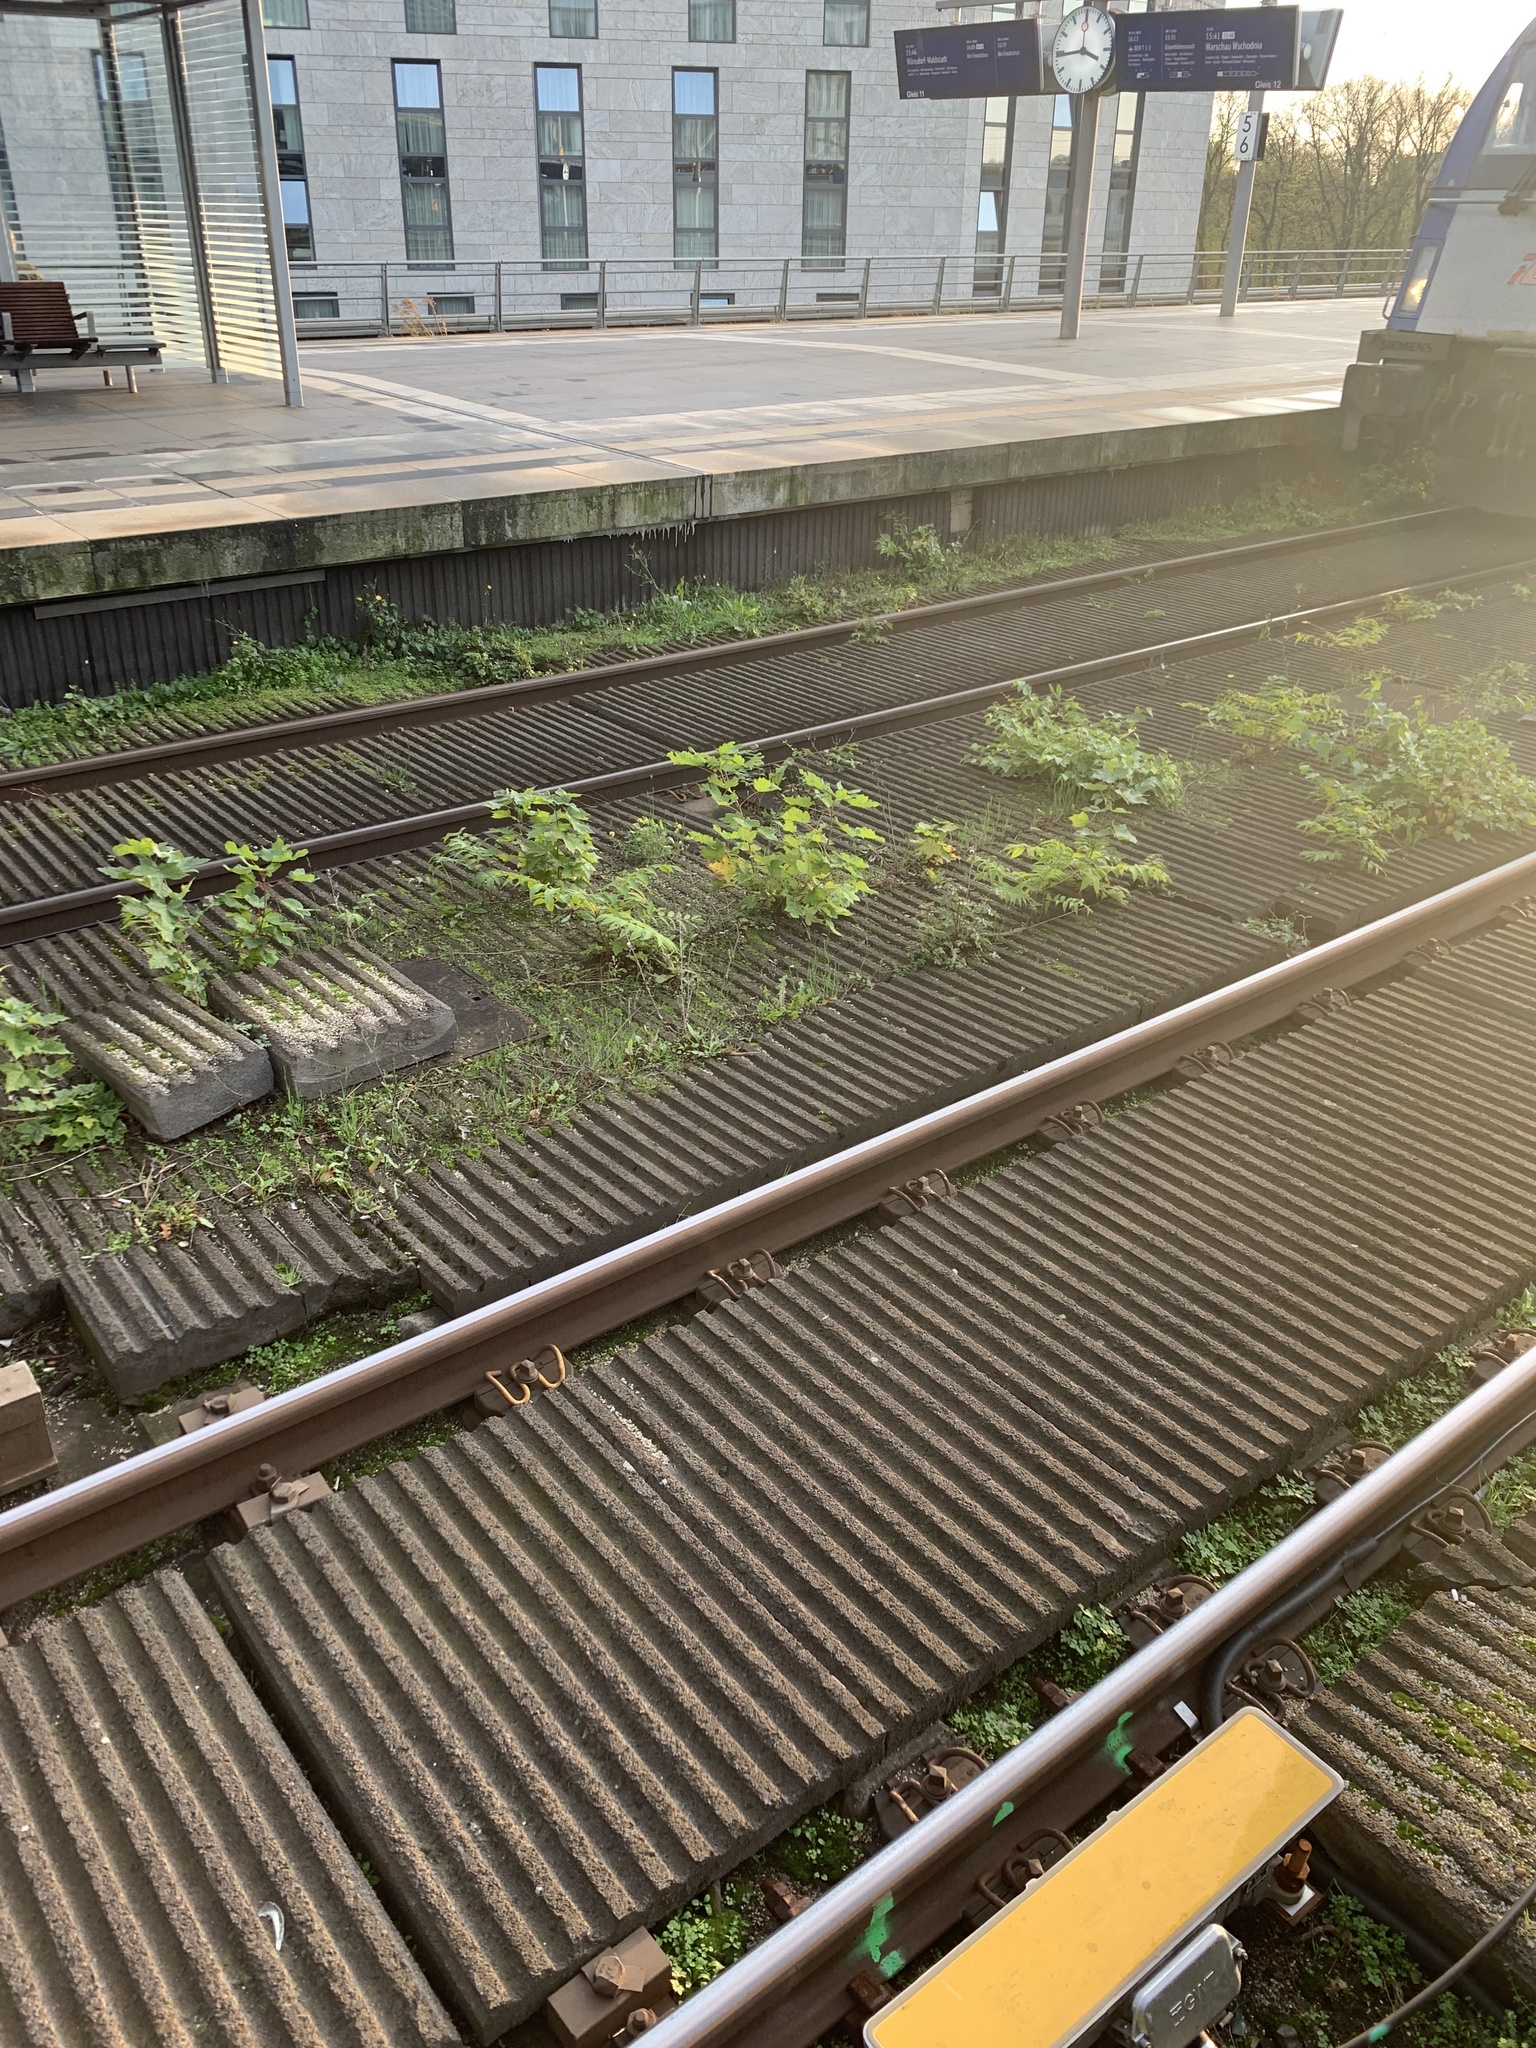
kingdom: Plantae
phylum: Tracheophyta
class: Magnoliopsida
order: Sapindales
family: Simaroubaceae
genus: Ailanthus
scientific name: Ailanthus altissima
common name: Tree-of-heaven
